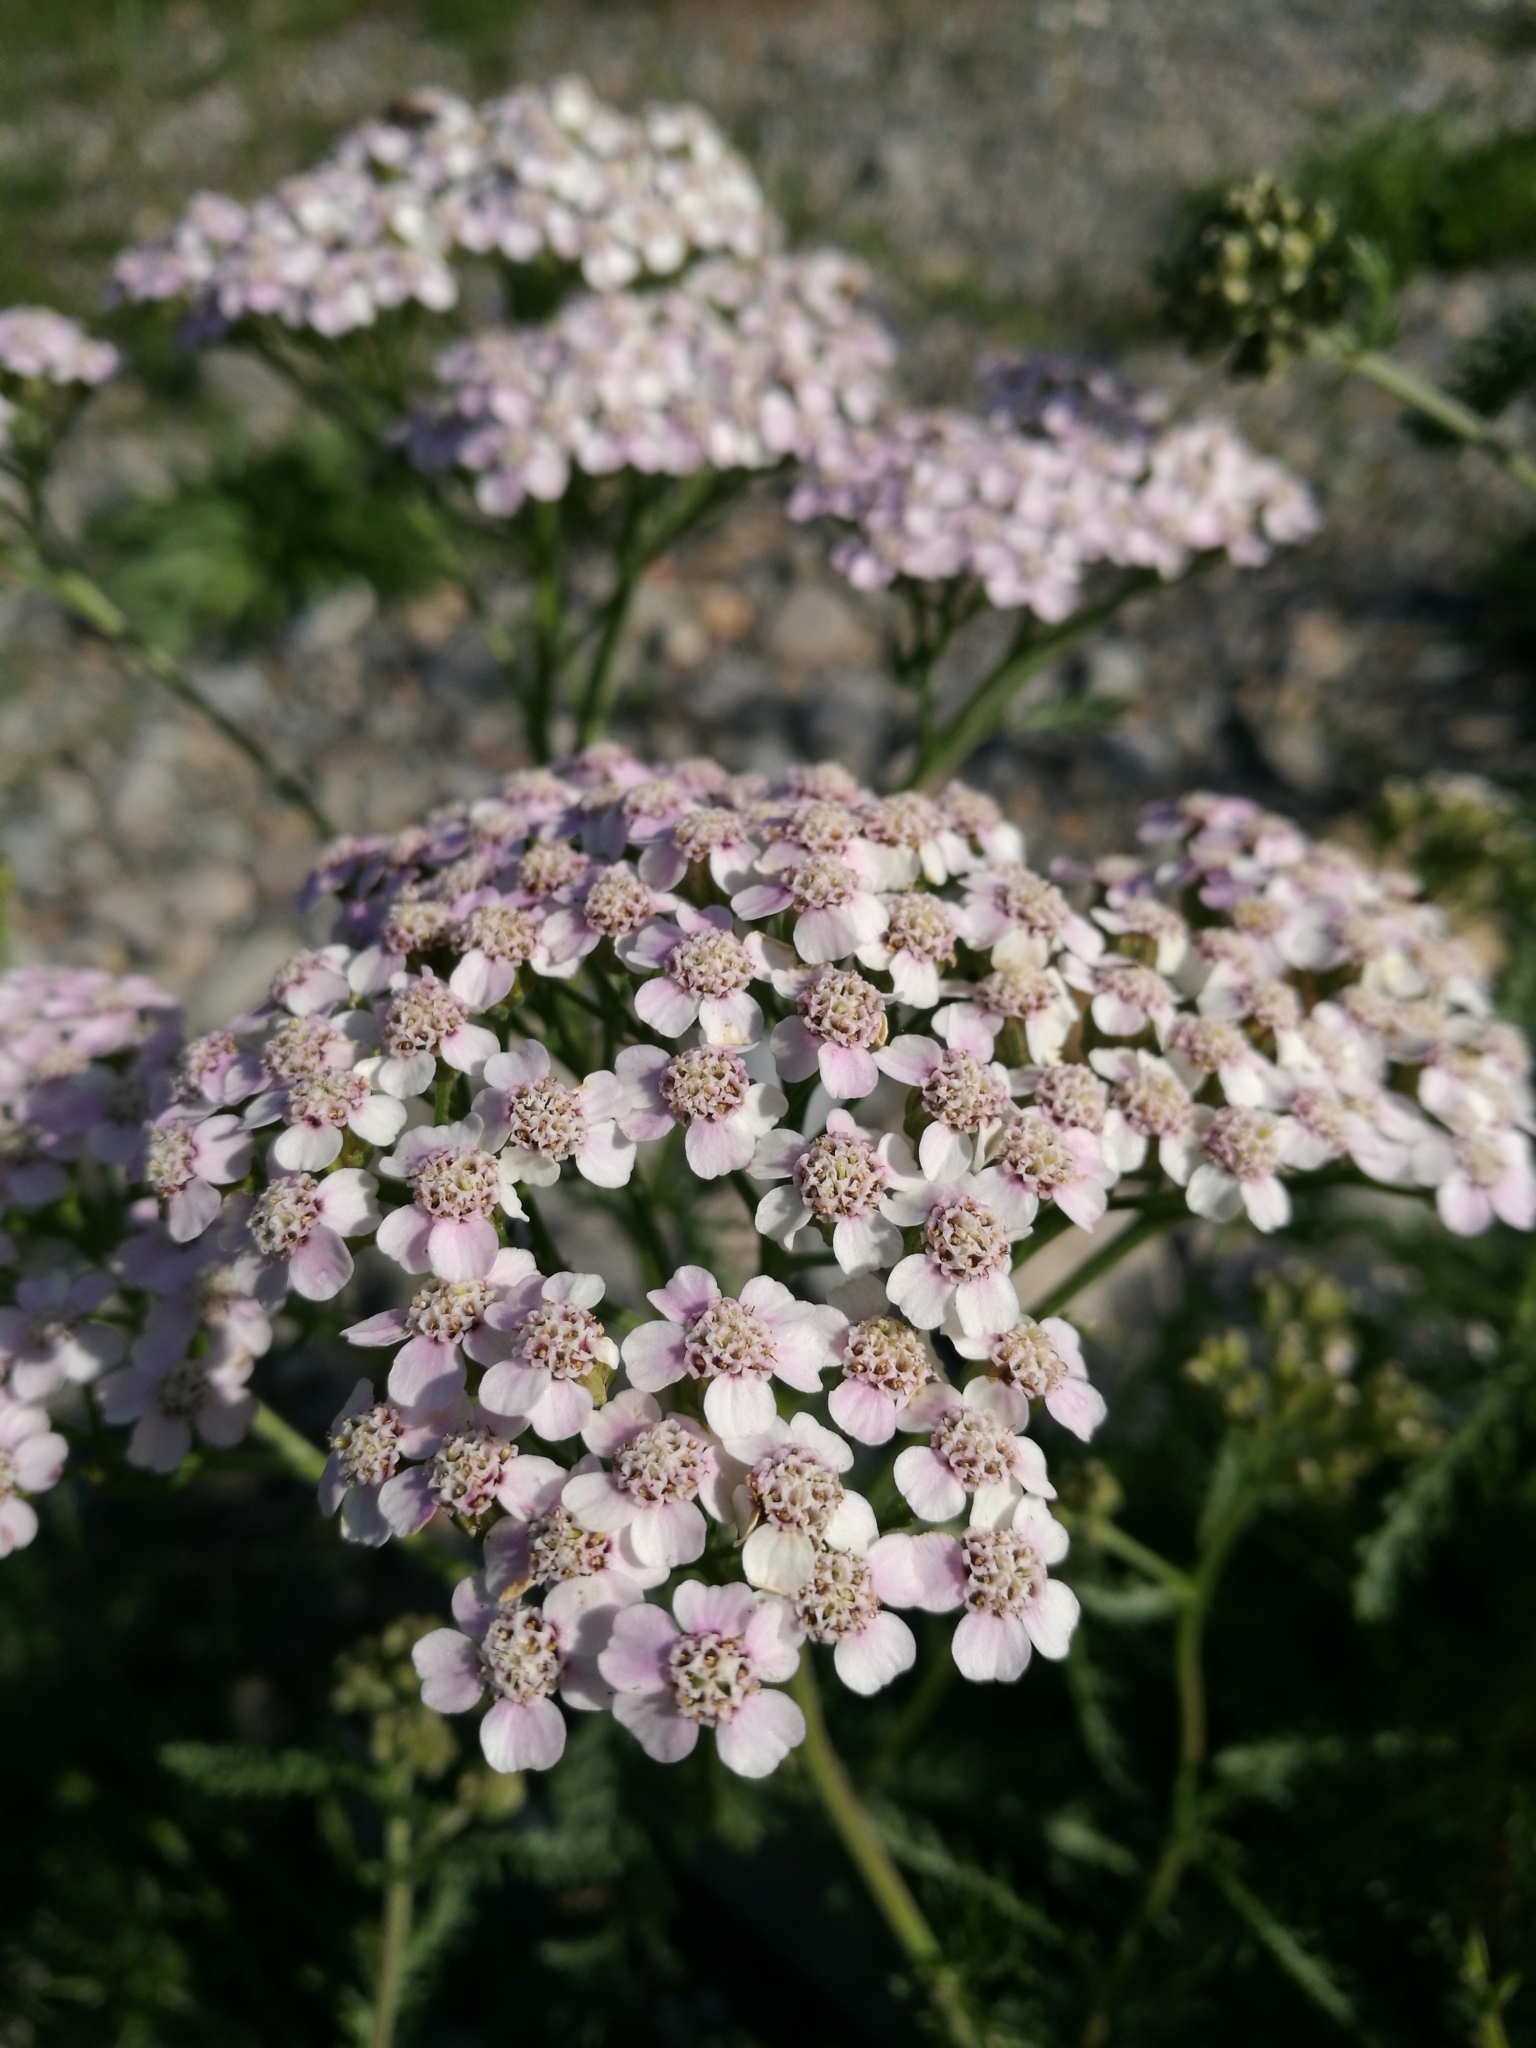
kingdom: Plantae
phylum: Tracheophyta
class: Magnoliopsida
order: Asterales
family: Asteraceae
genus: Achillea
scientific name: Achillea millefolium
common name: Yarrow
